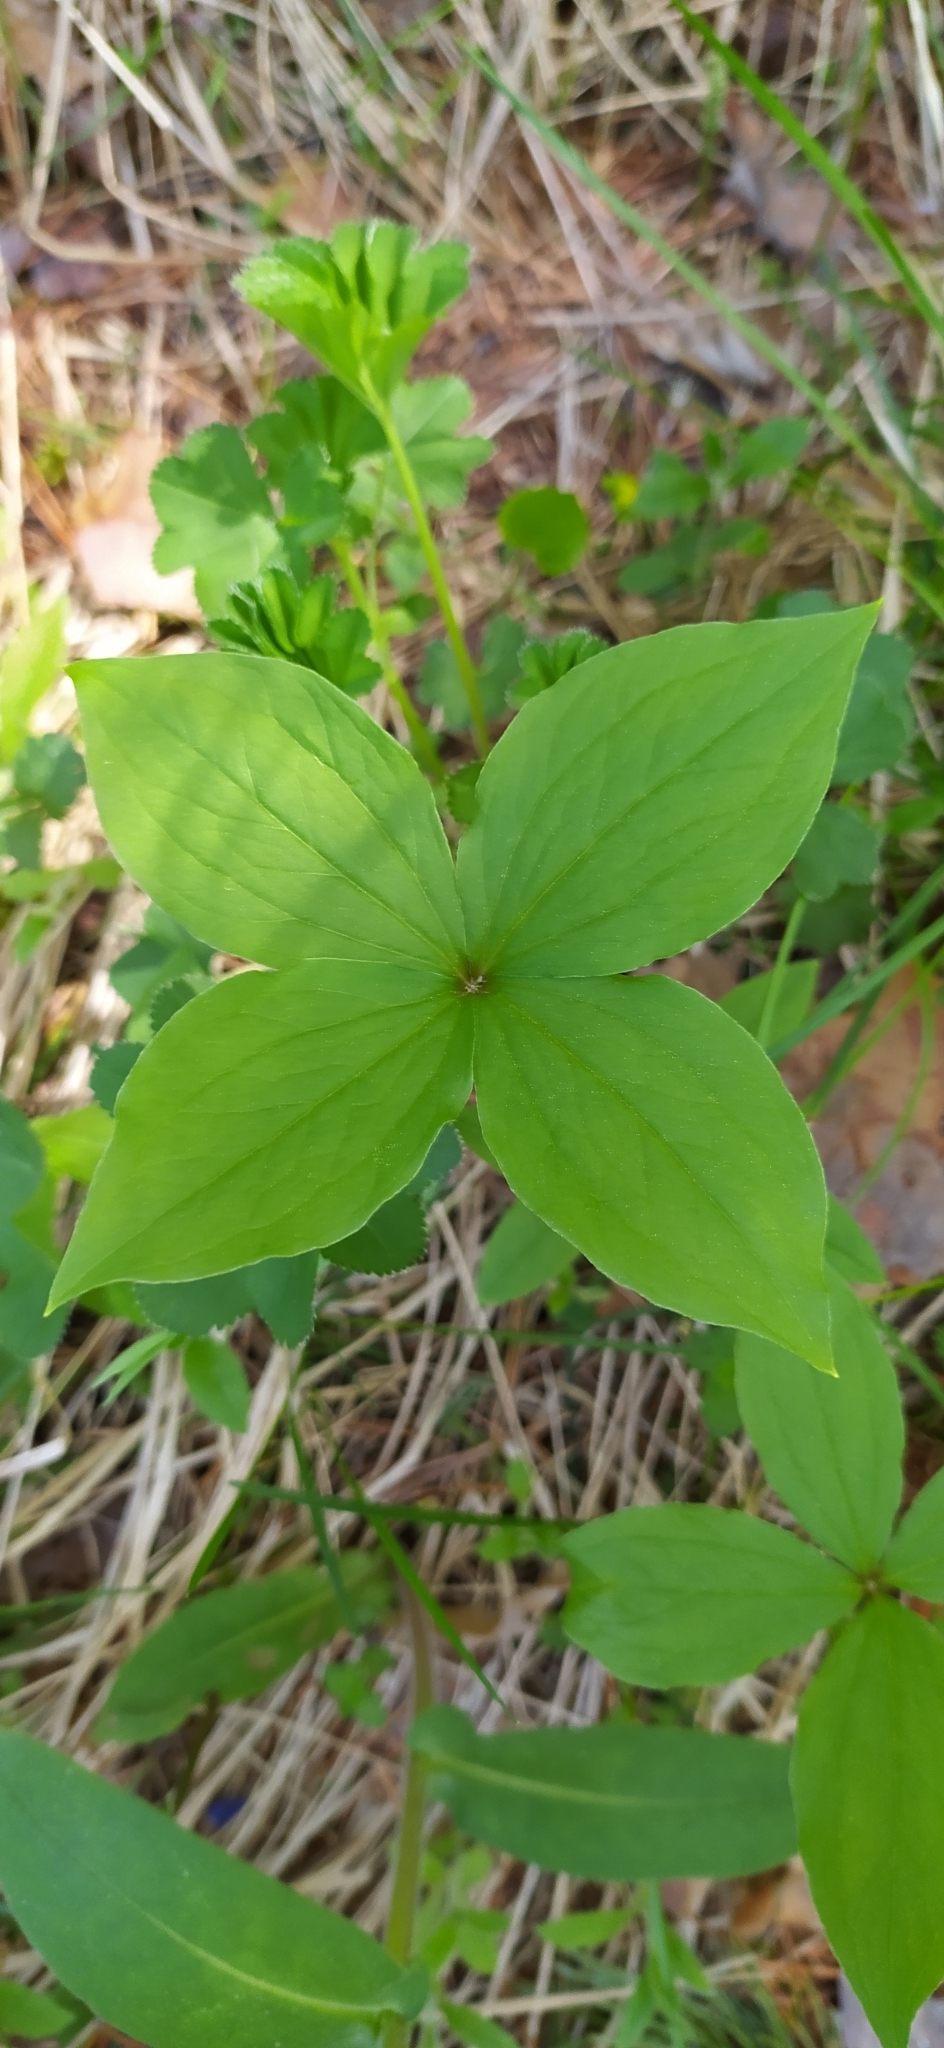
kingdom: Plantae
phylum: Tracheophyta
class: Liliopsida
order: Liliales
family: Melanthiaceae
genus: Paris
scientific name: Paris quadrifolia
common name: Herb-paris
